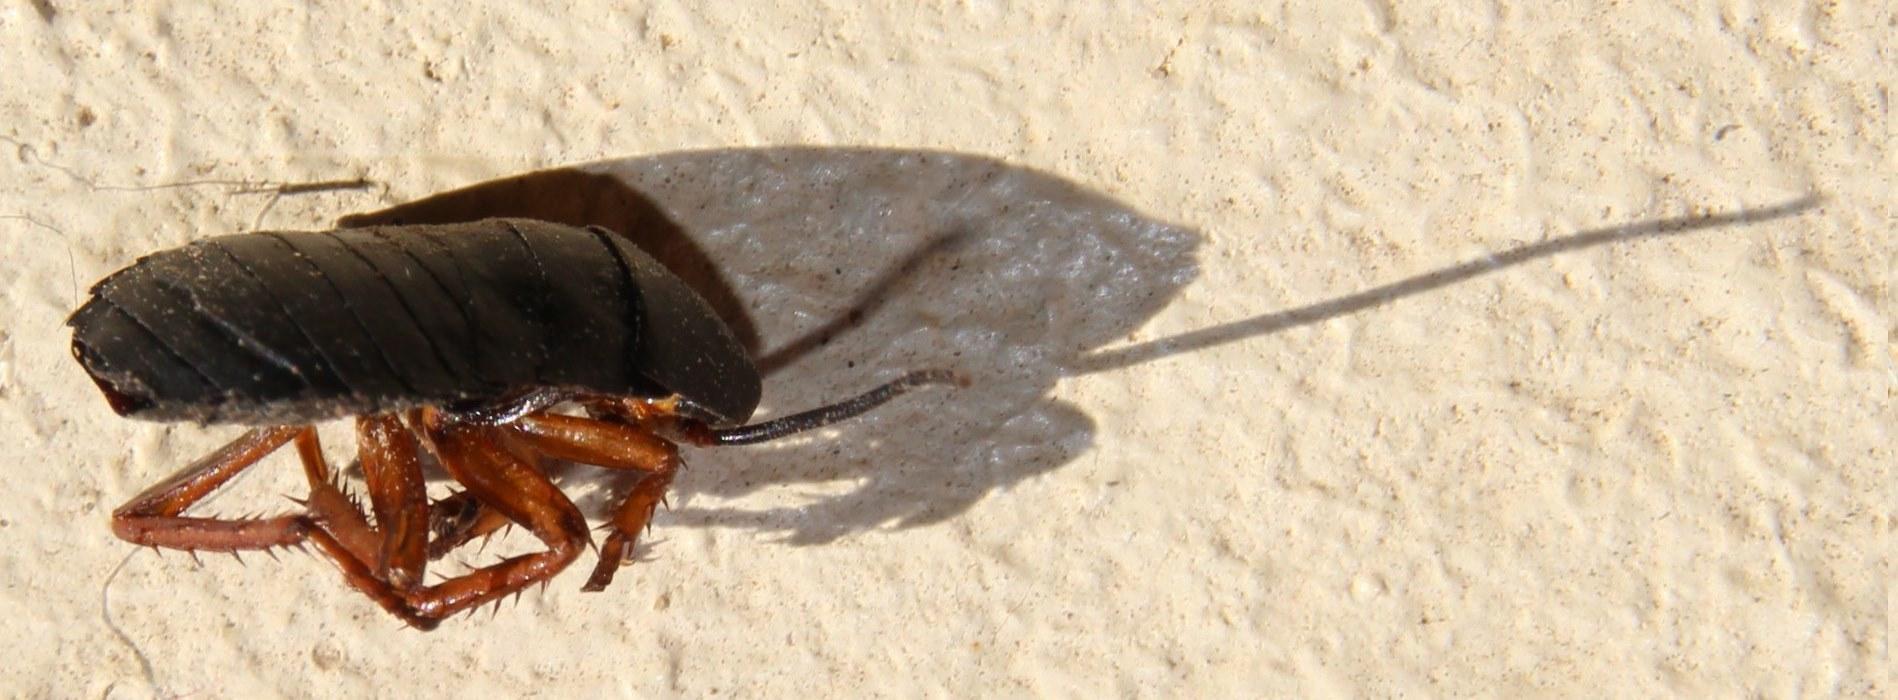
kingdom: Animalia
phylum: Arthropoda
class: Insecta
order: Blattodea
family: Blattidae
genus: Deropeltis
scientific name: Deropeltis erythrocephala
